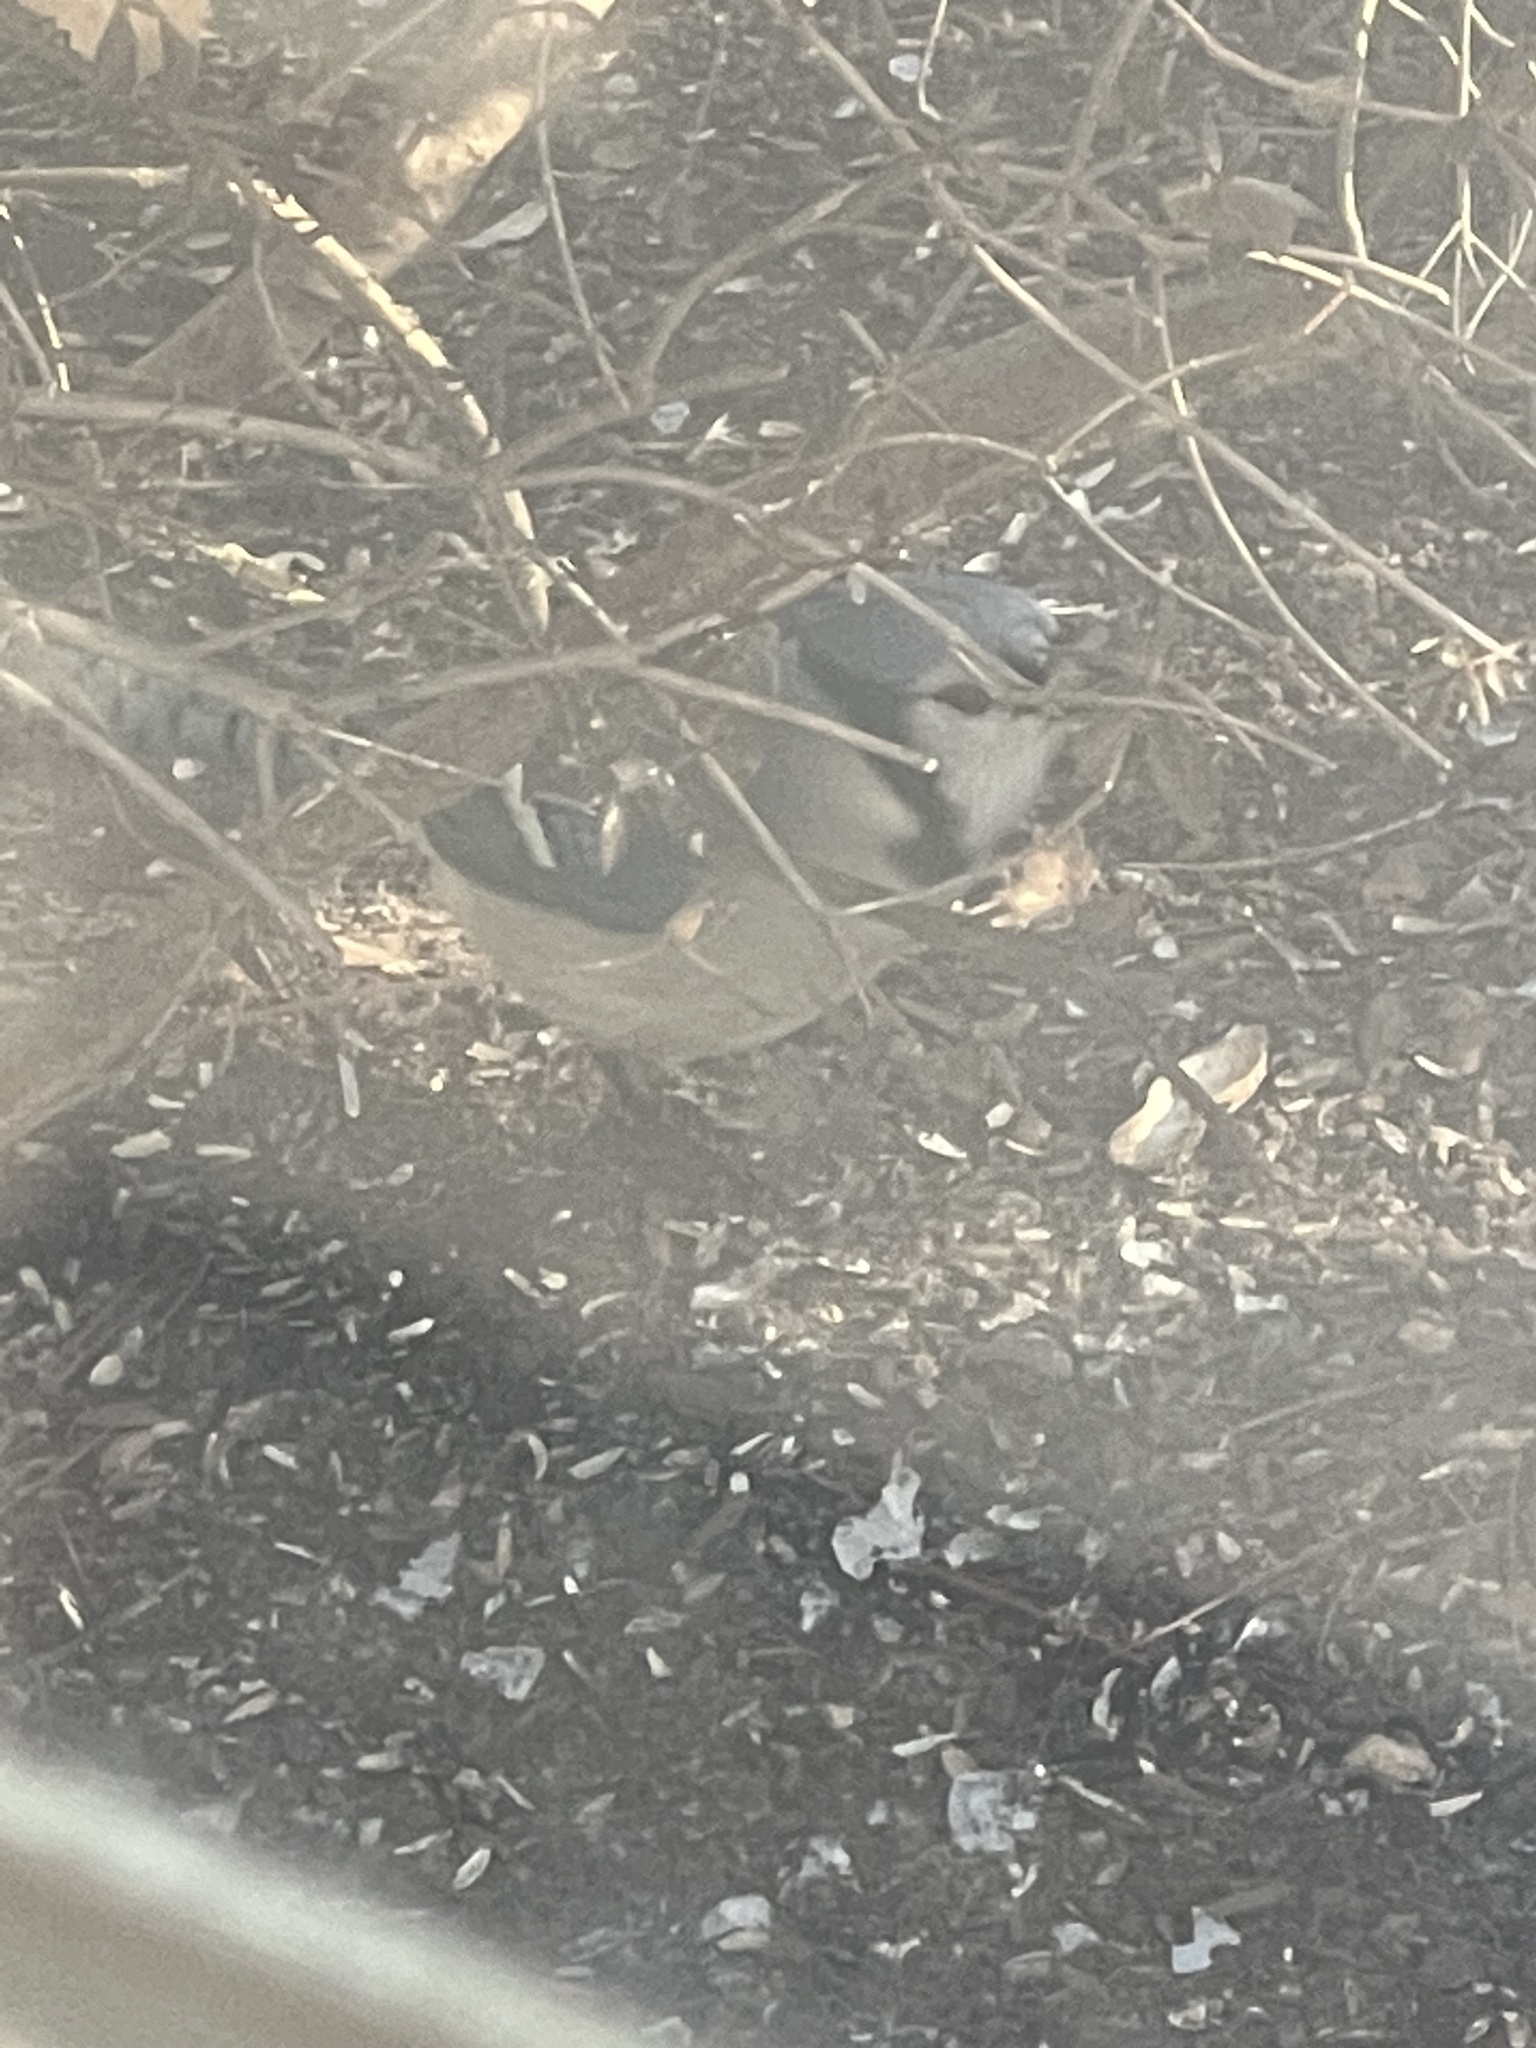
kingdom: Animalia
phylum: Chordata
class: Aves
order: Passeriformes
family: Corvidae
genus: Cyanocitta
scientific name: Cyanocitta cristata
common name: Blue jay
